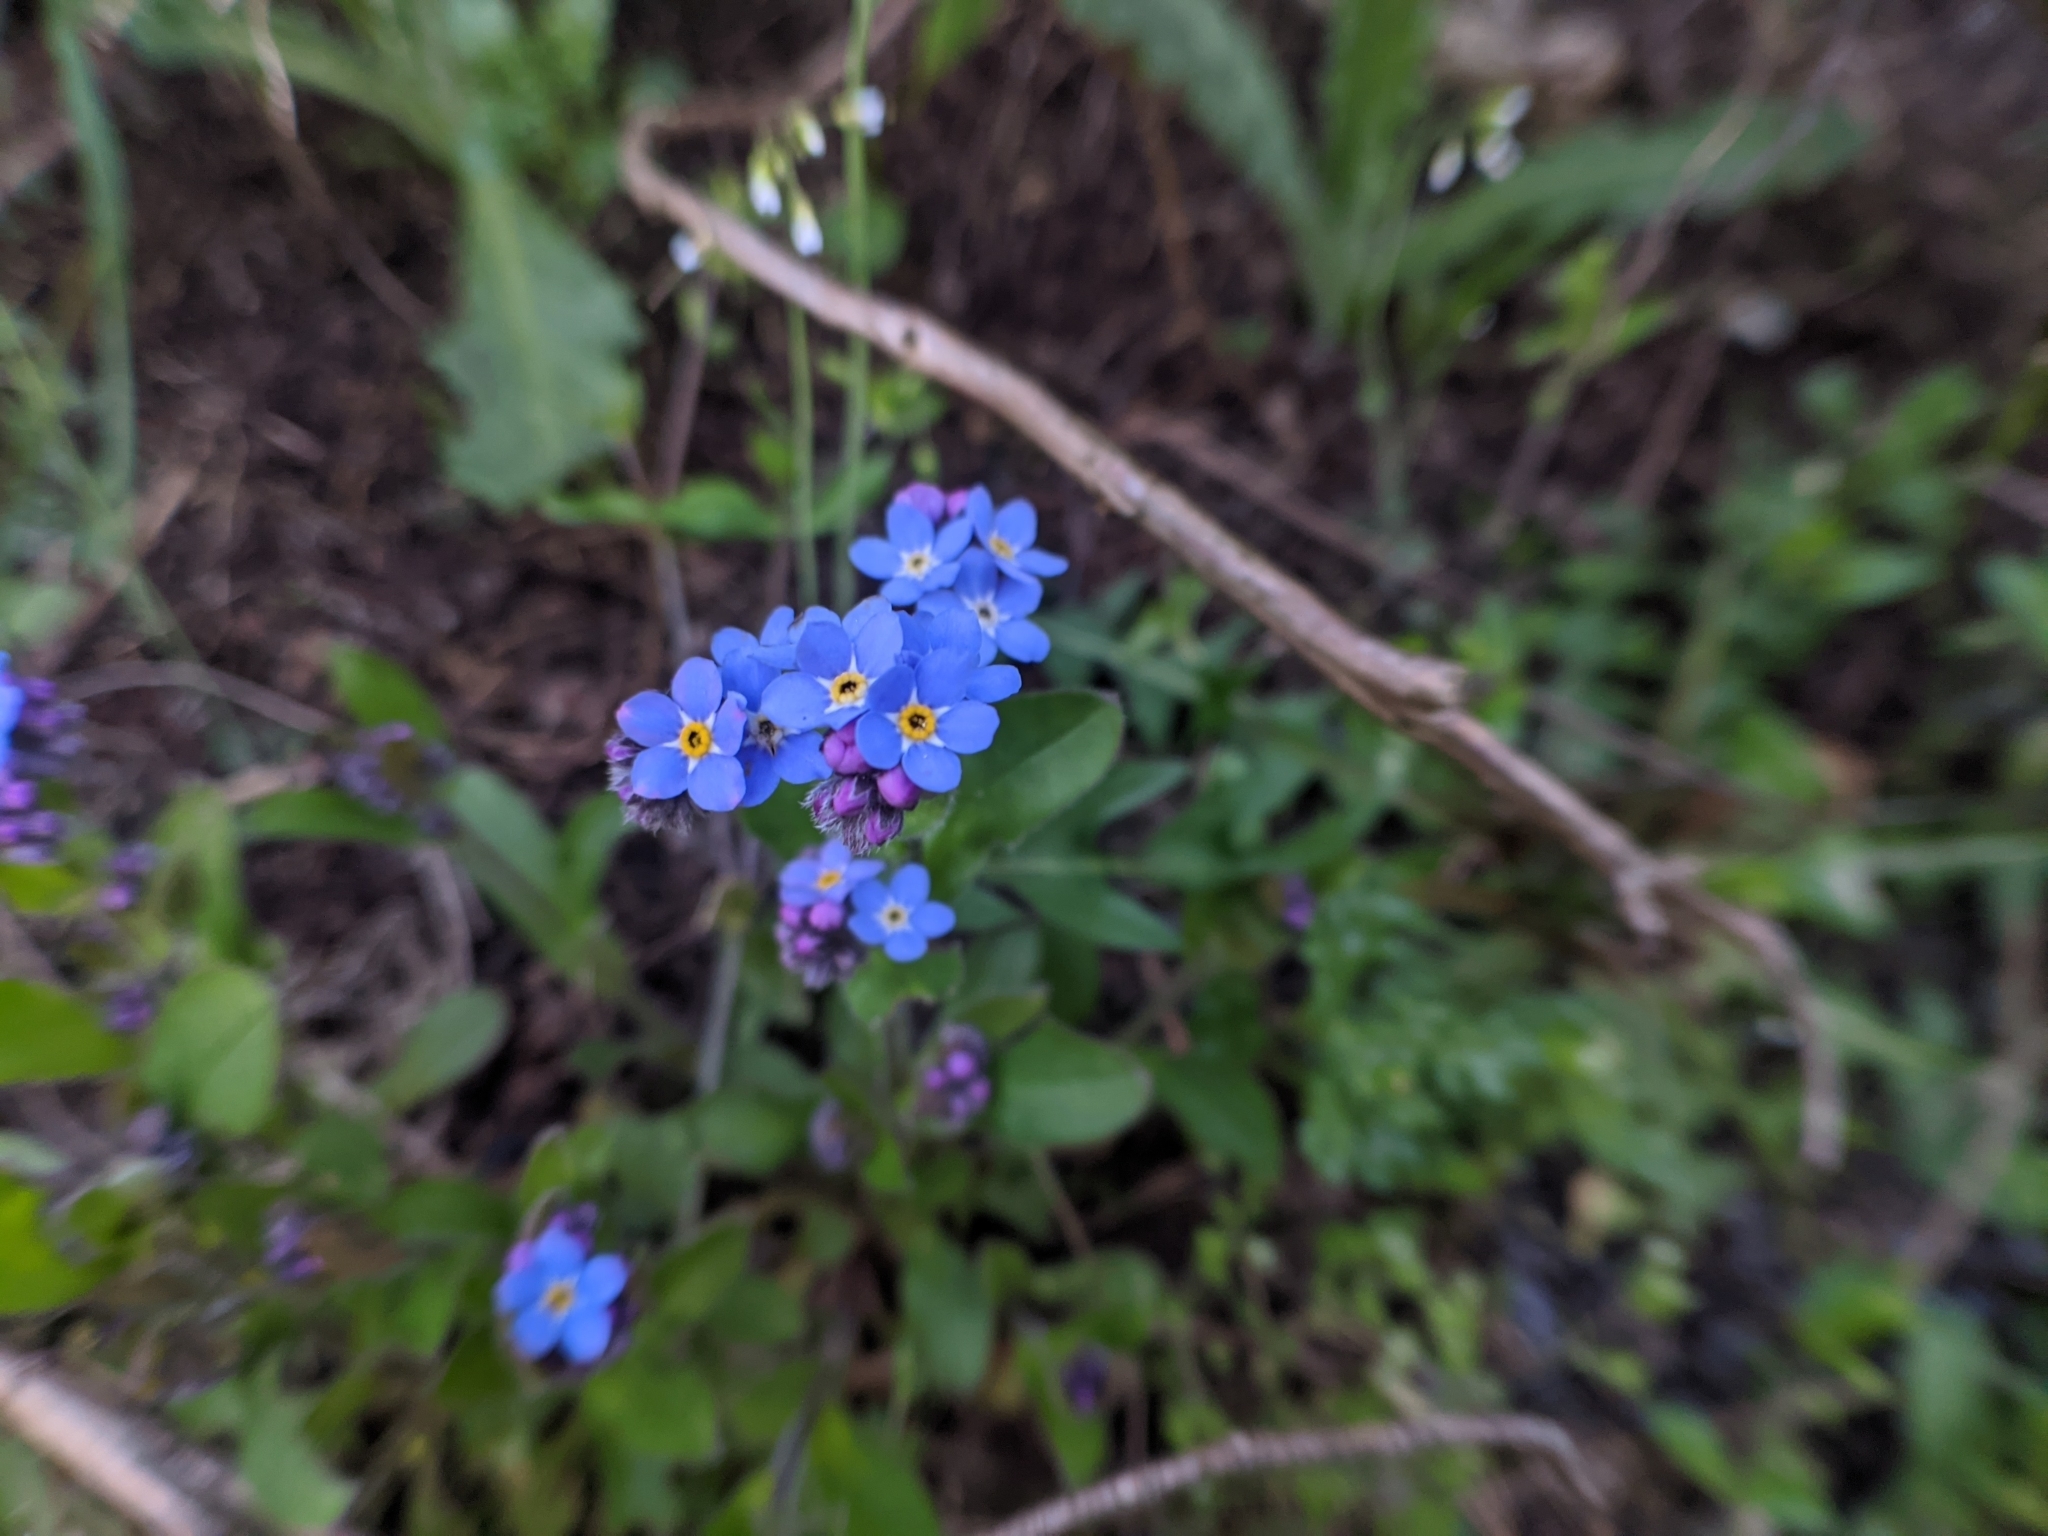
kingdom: Plantae
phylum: Tracheophyta
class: Magnoliopsida
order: Boraginales
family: Boraginaceae
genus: Myosotis
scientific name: Myosotis sylvatica
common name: Wood forget-me-not
